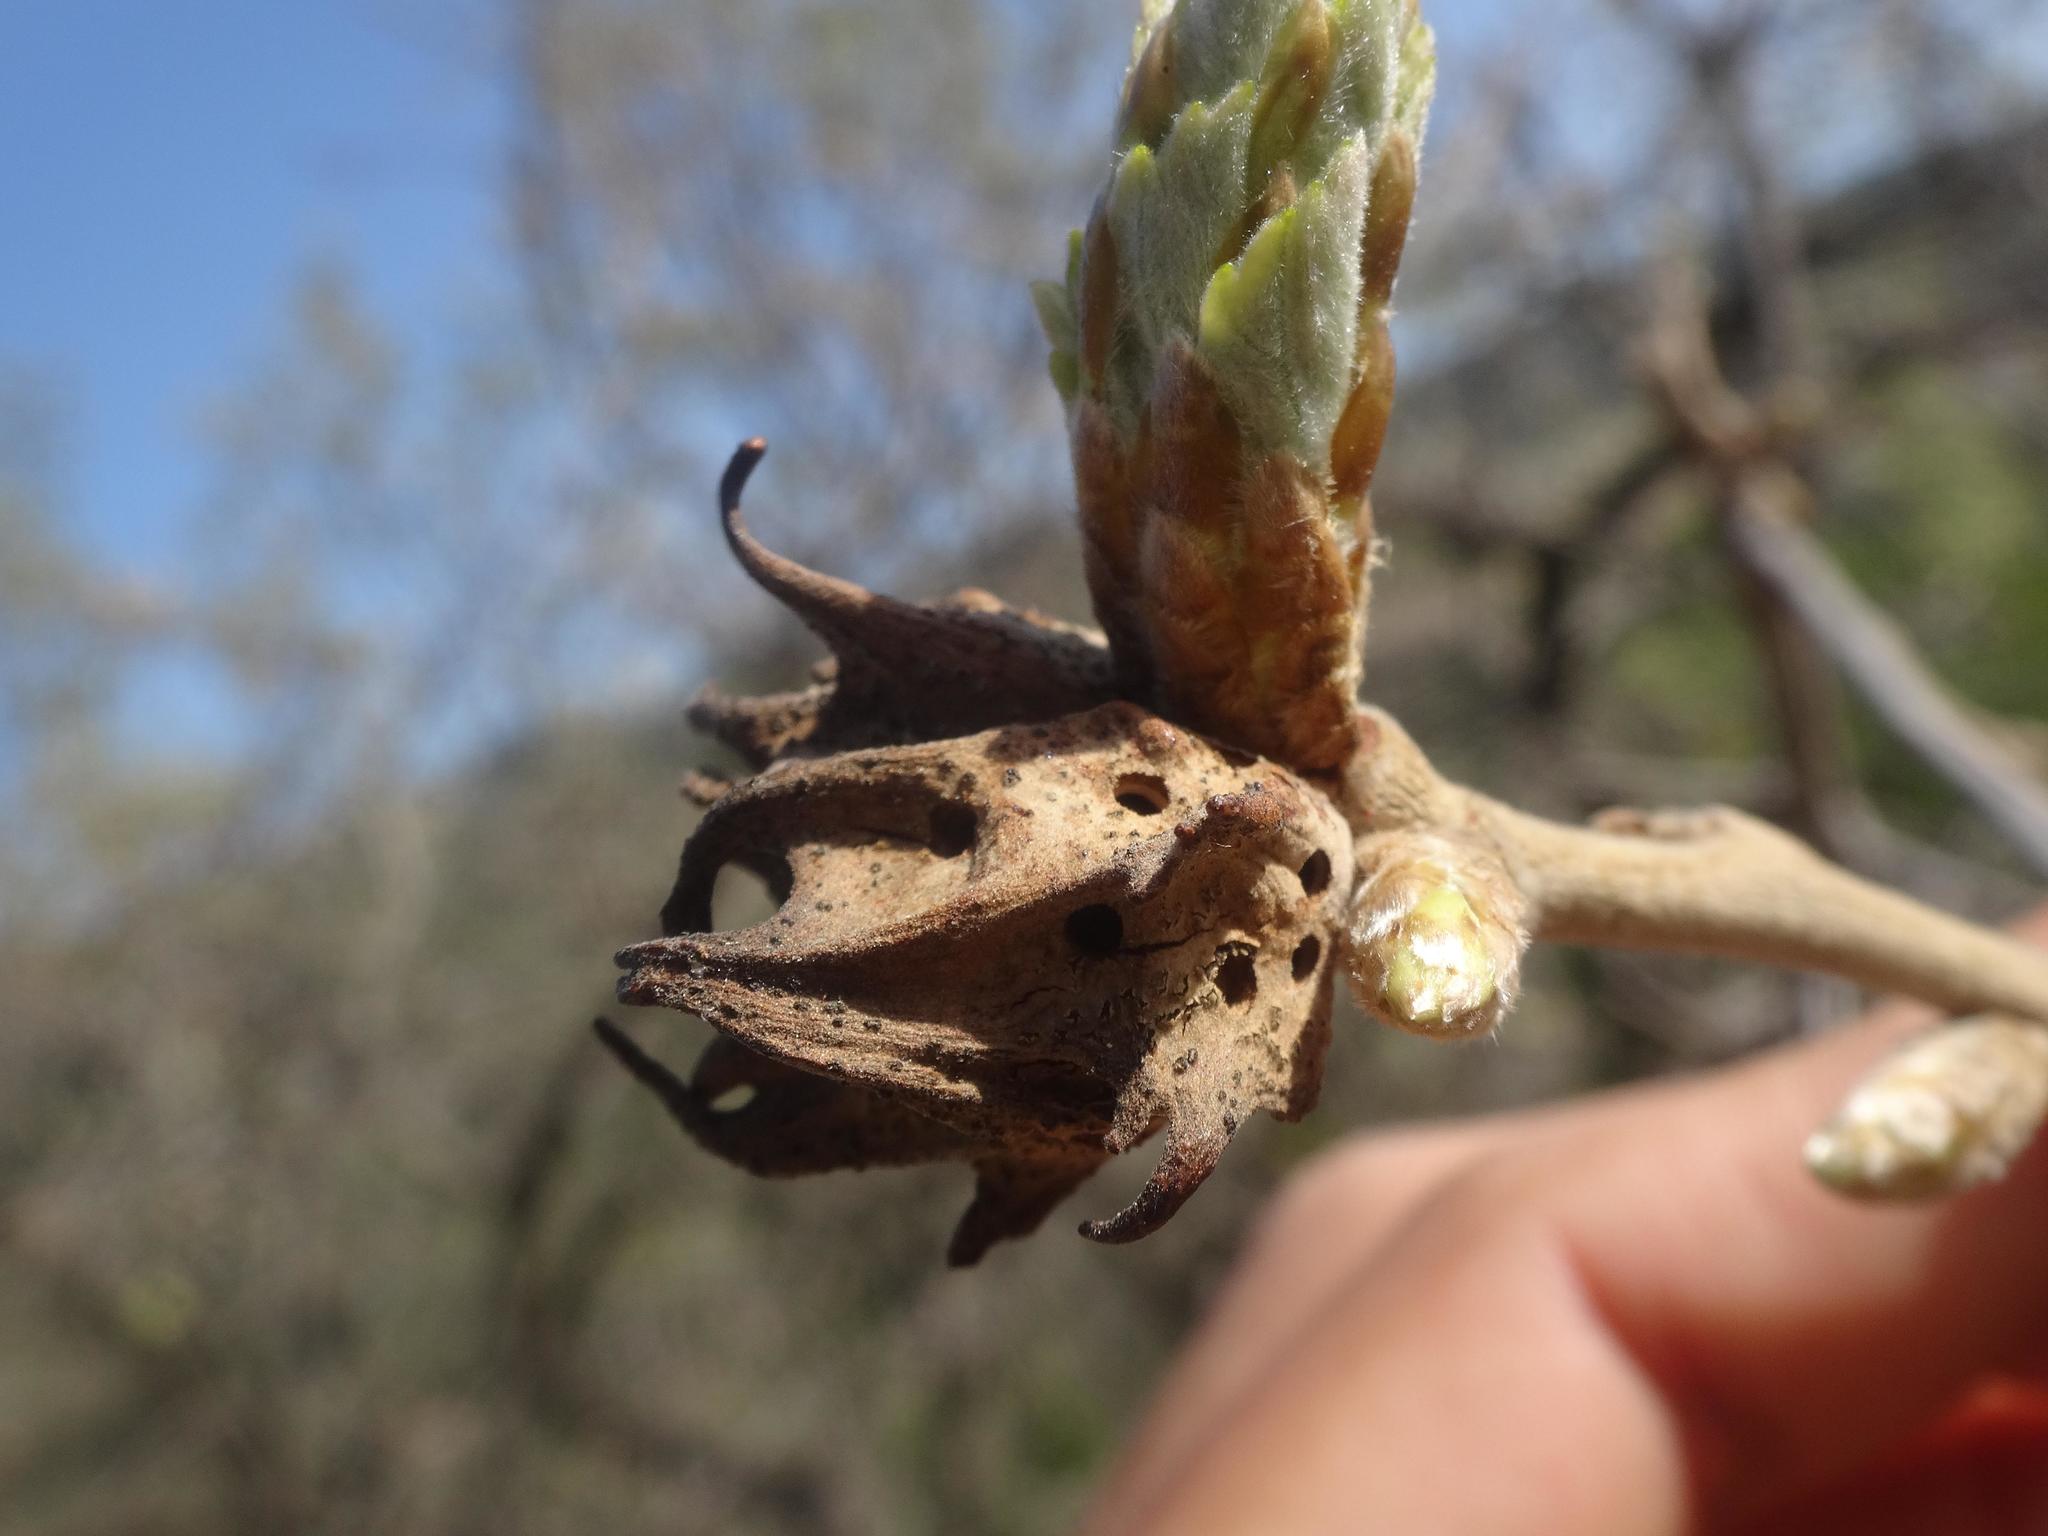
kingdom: Animalia
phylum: Arthropoda
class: Insecta
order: Hymenoptera
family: Cynipidae
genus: Andricus
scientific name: Andricus coriarius
